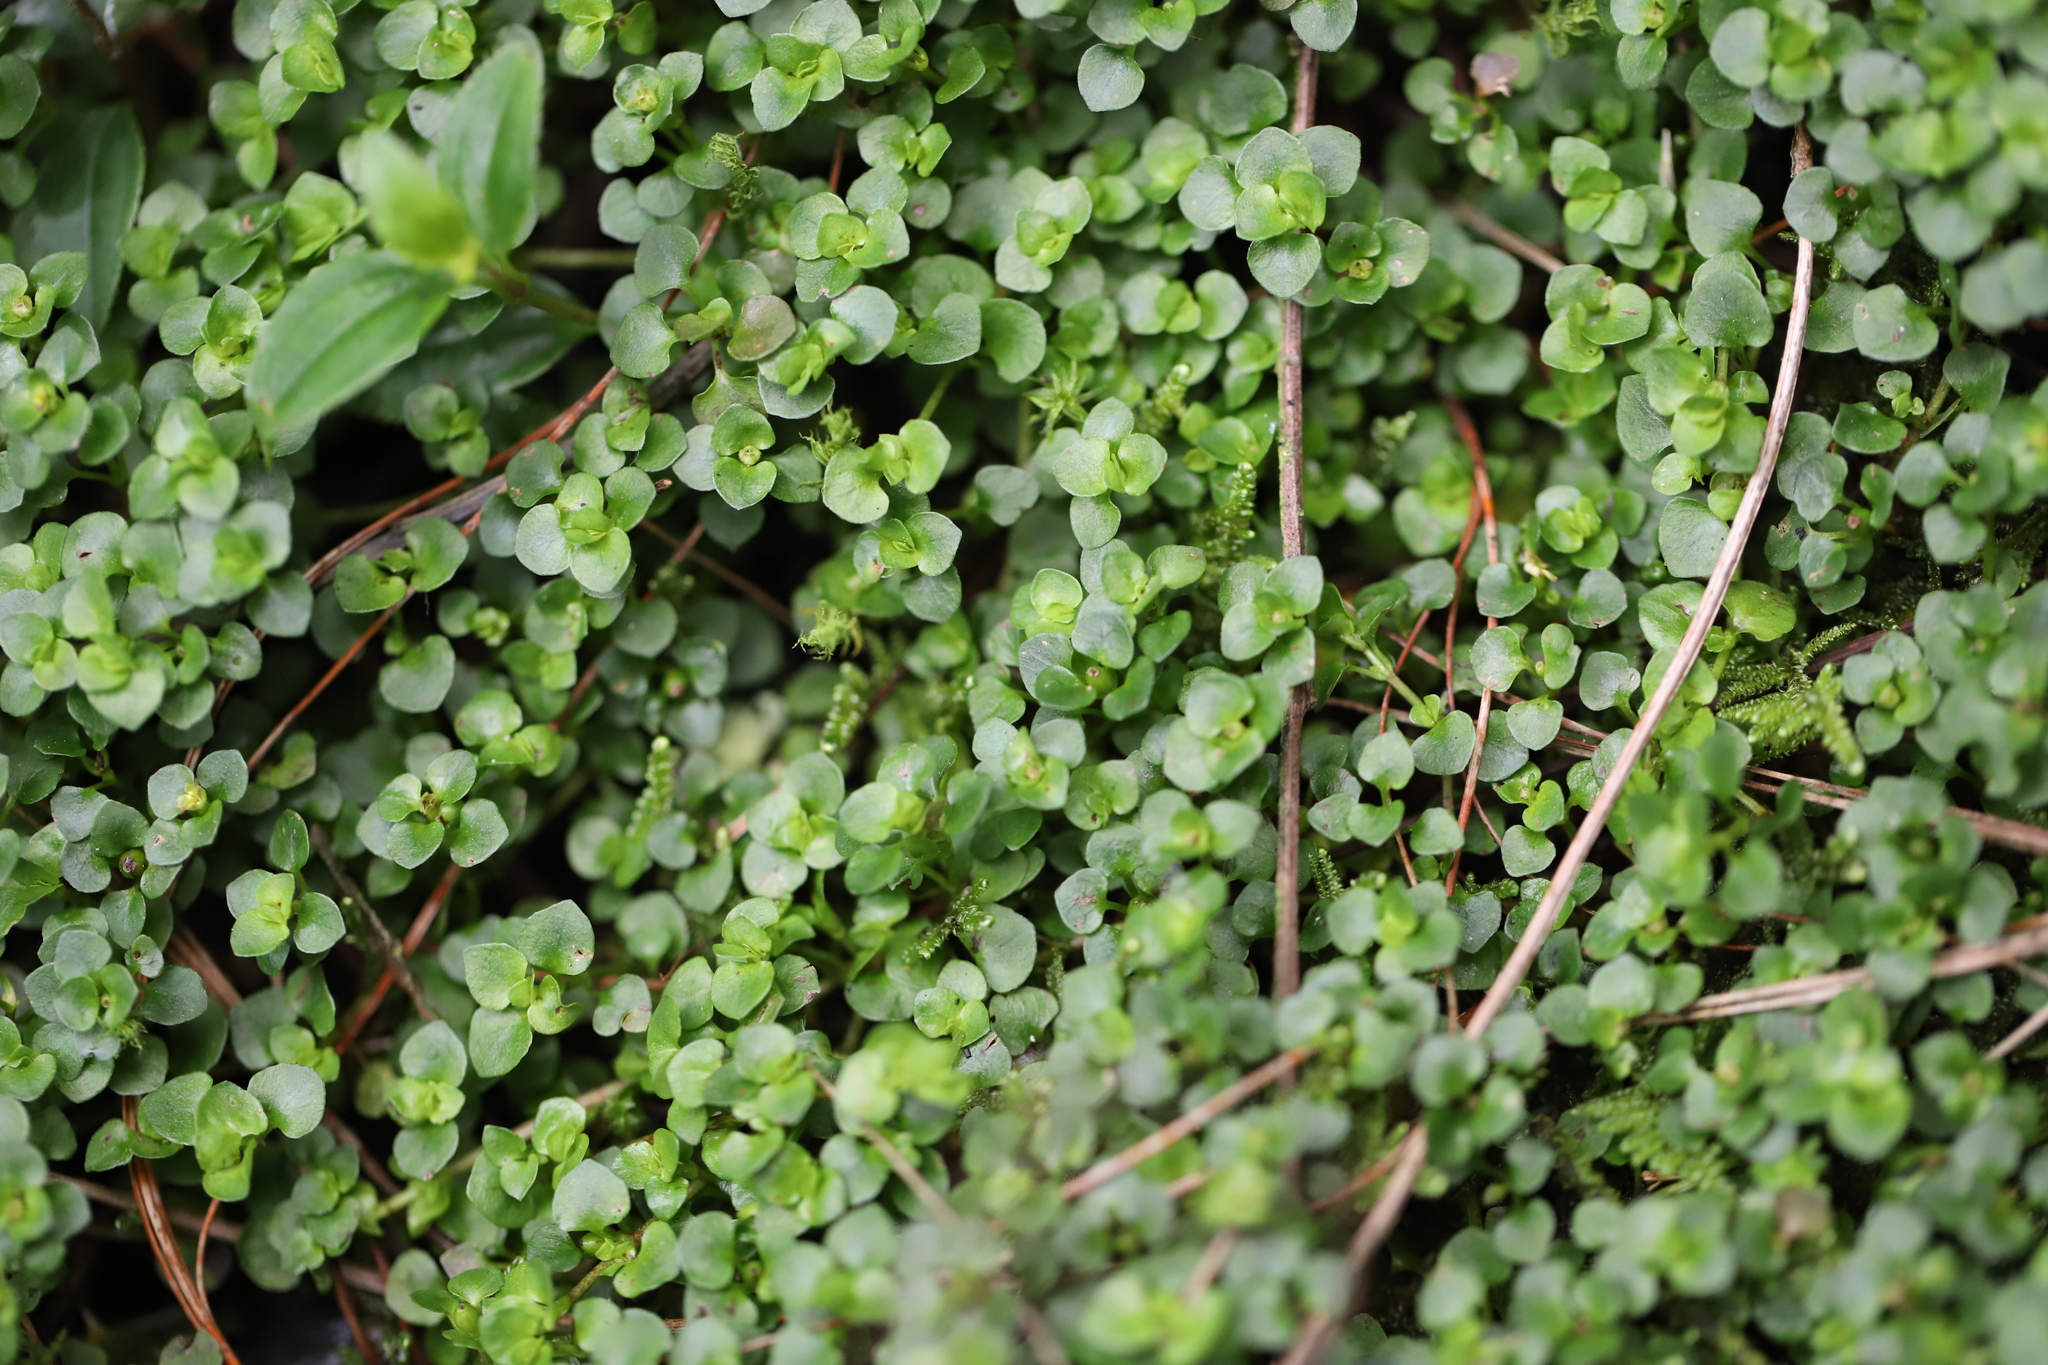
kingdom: Plantae
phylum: Tracheophyta
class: Magnoliopsida
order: Gentianales
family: Rubiaceae
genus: Nertera
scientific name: Nertera granadensis
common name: Beadplant
